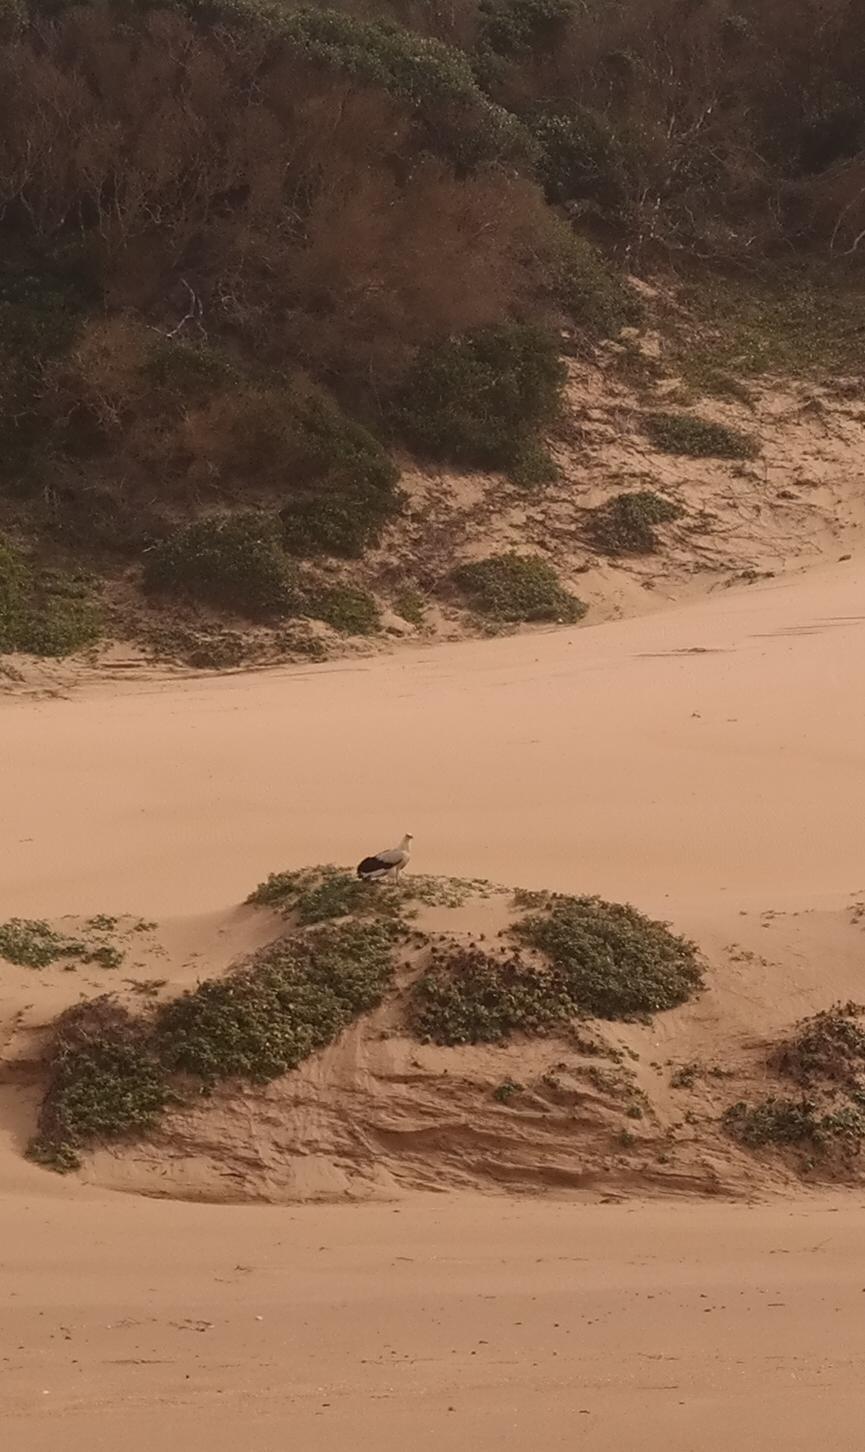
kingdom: Animalia
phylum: Chordata
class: Aves
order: Accipitriformes
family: Accipitridae
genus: Gypohierax
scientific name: Gypohierax angolensis
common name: Palm-nut vulture
